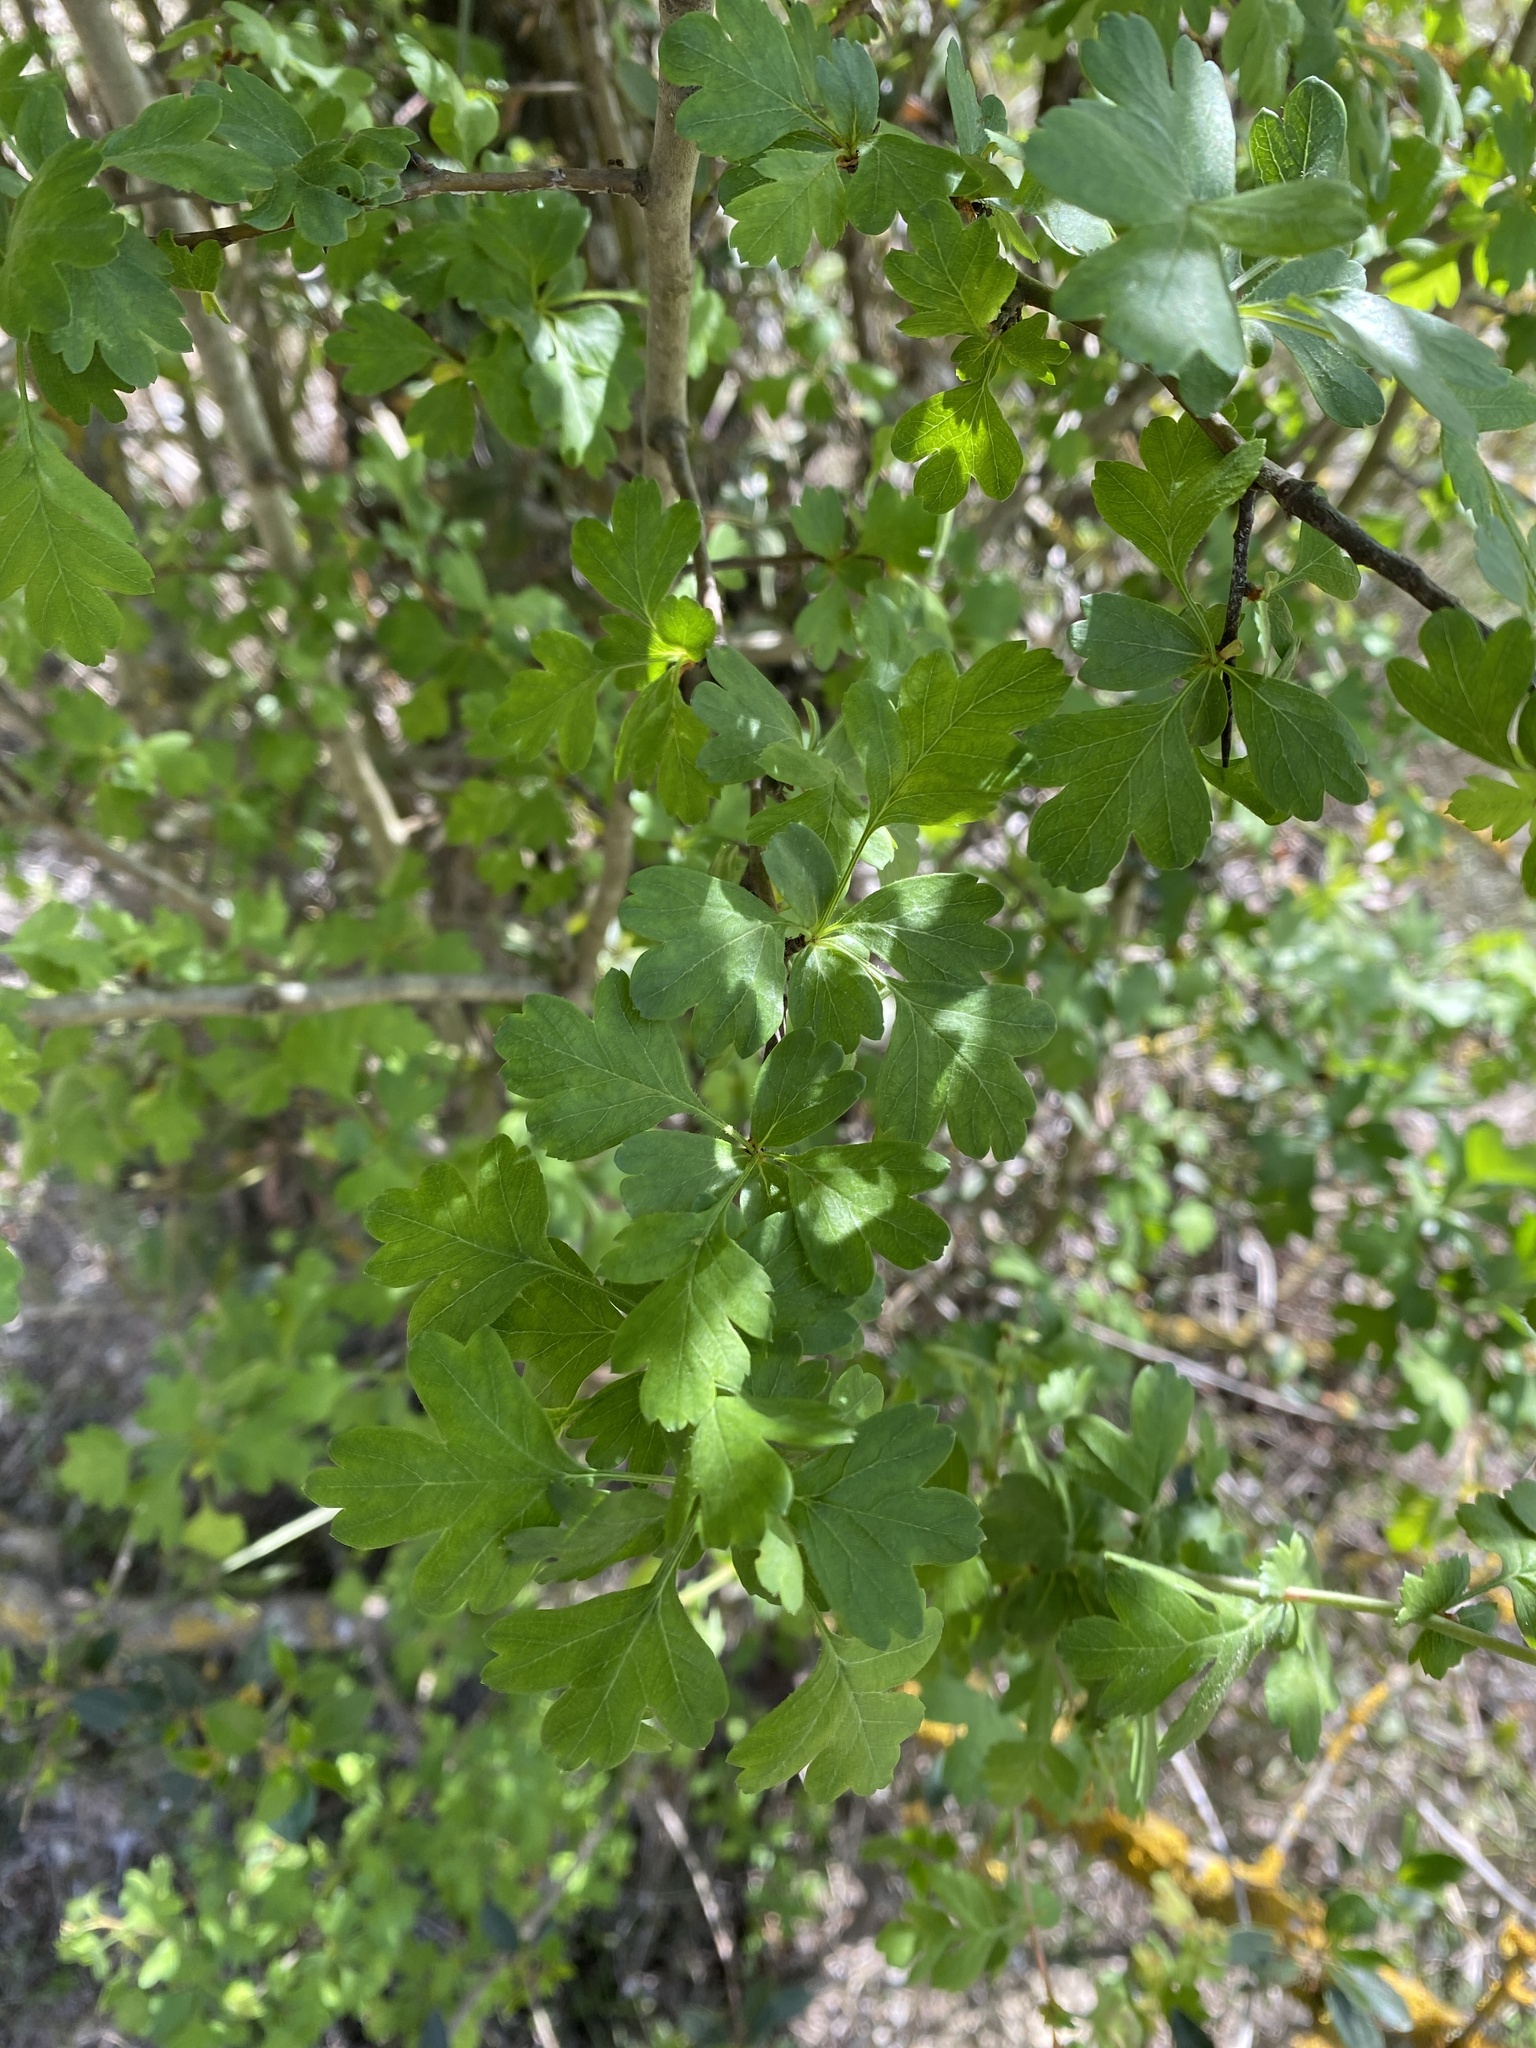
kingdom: Plantae
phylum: Tracheophyta
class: Magnoliopsida
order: Rosales
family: Rosaceae
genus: Crataegus
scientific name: Crataegus monogyna
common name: Hawthorn
